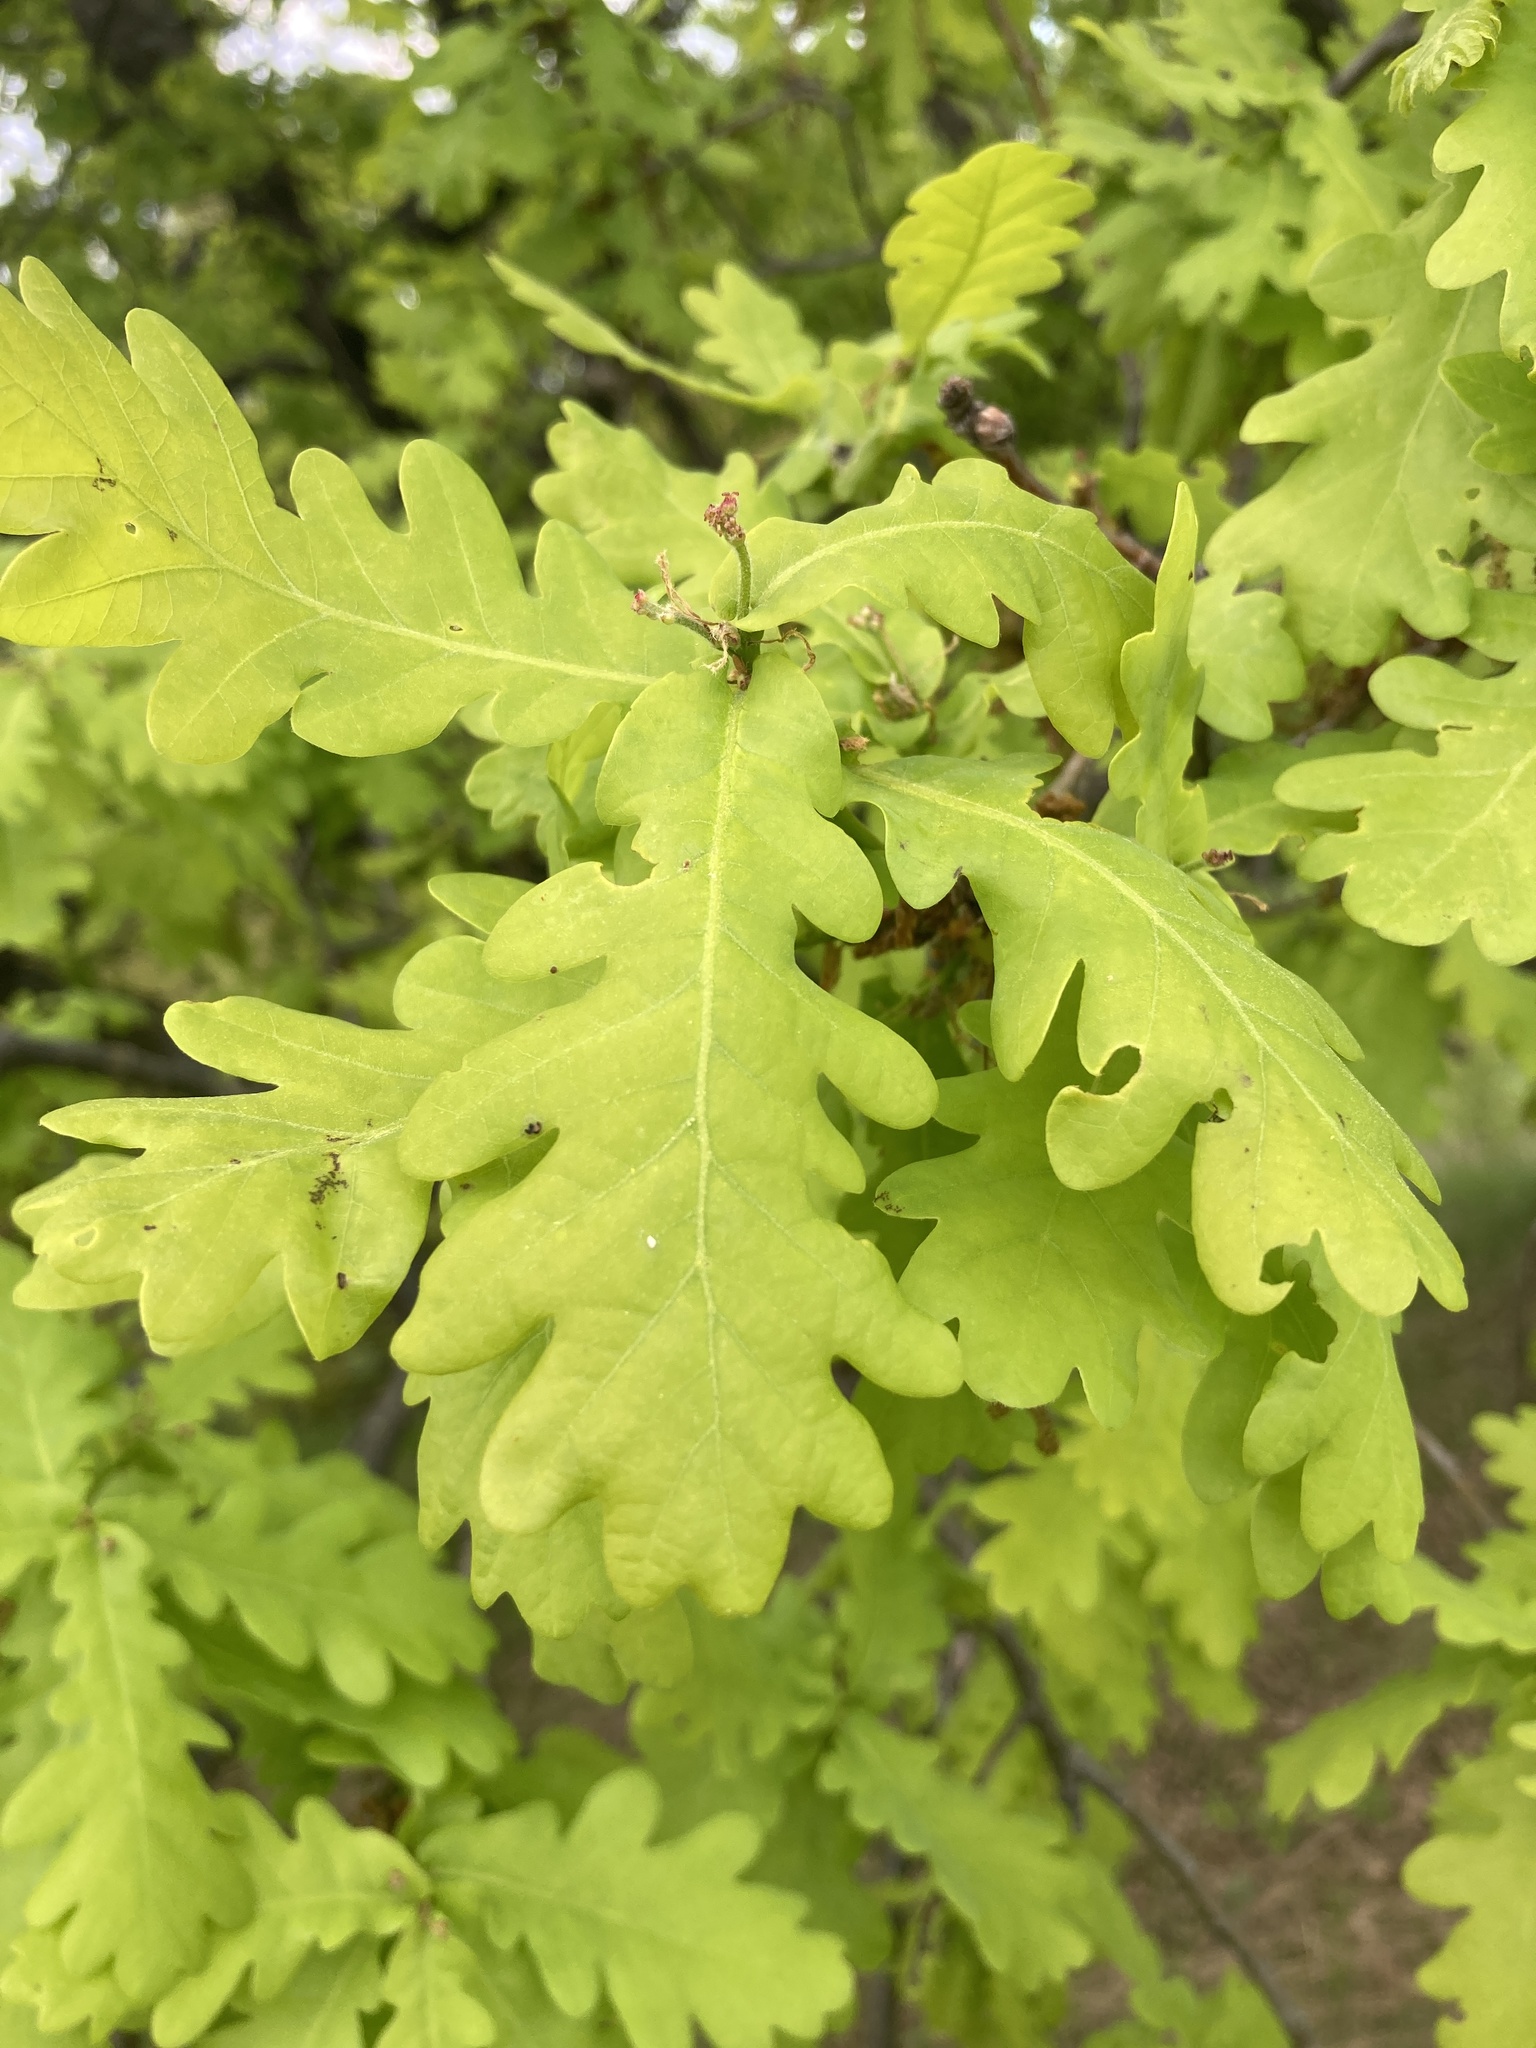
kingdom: Plantae
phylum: Tracheophyta
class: Magnoliopsida
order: Fagales
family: Fagaceae
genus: Quercus
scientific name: Quercus robur
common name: Pedunculate oak
